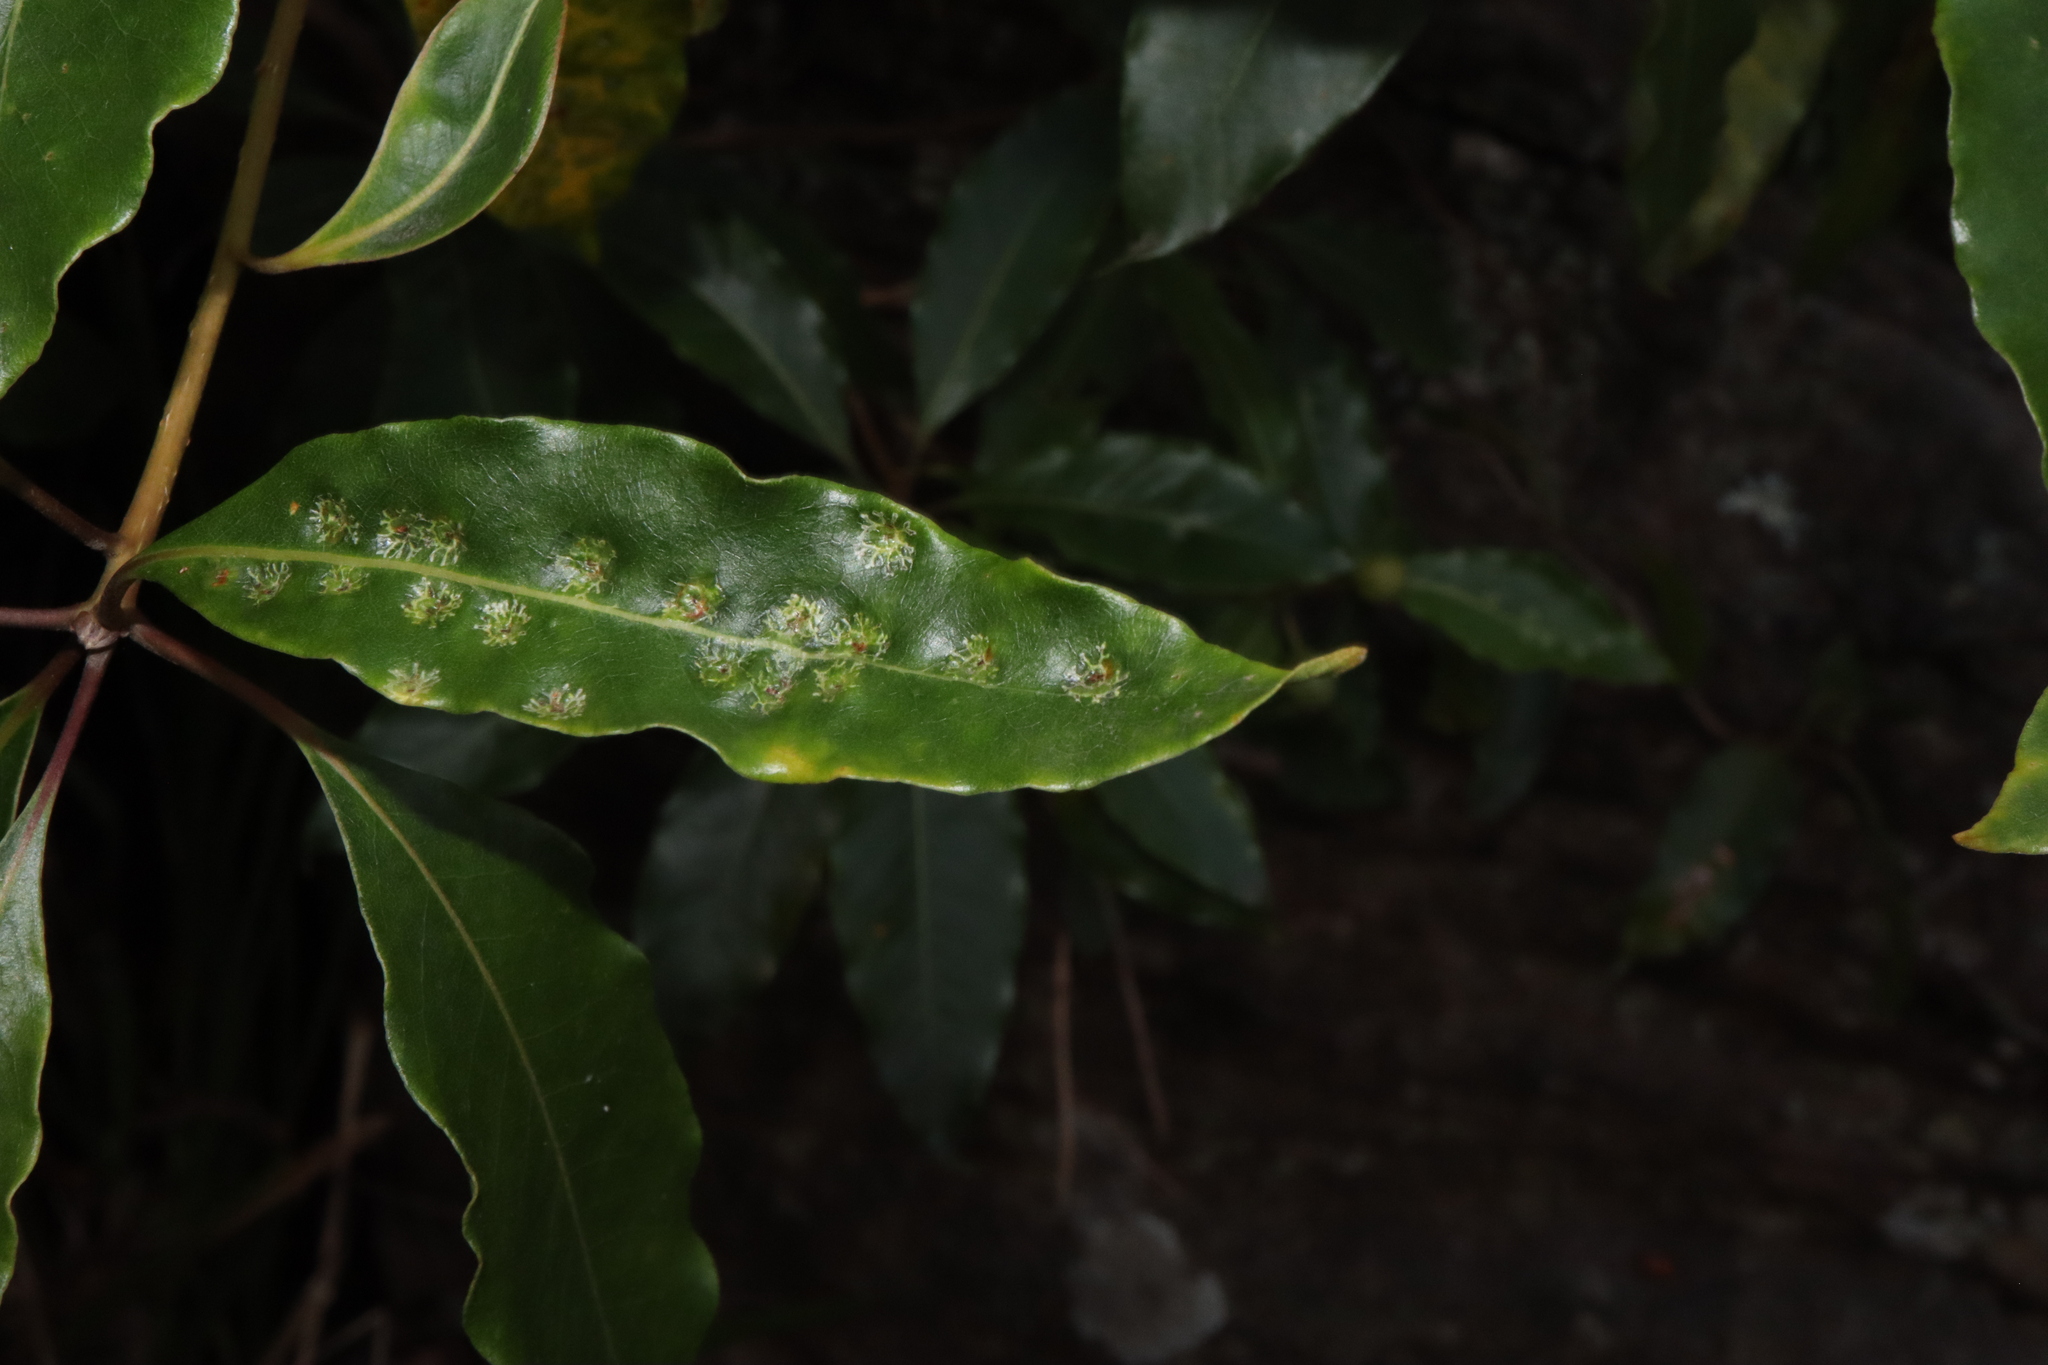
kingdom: Animalia
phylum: Arthropoda
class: Insecta
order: Diptera
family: Agromyzidae
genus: Phytoliriomyza
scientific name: Phytoliriomyza pittosporophylli
